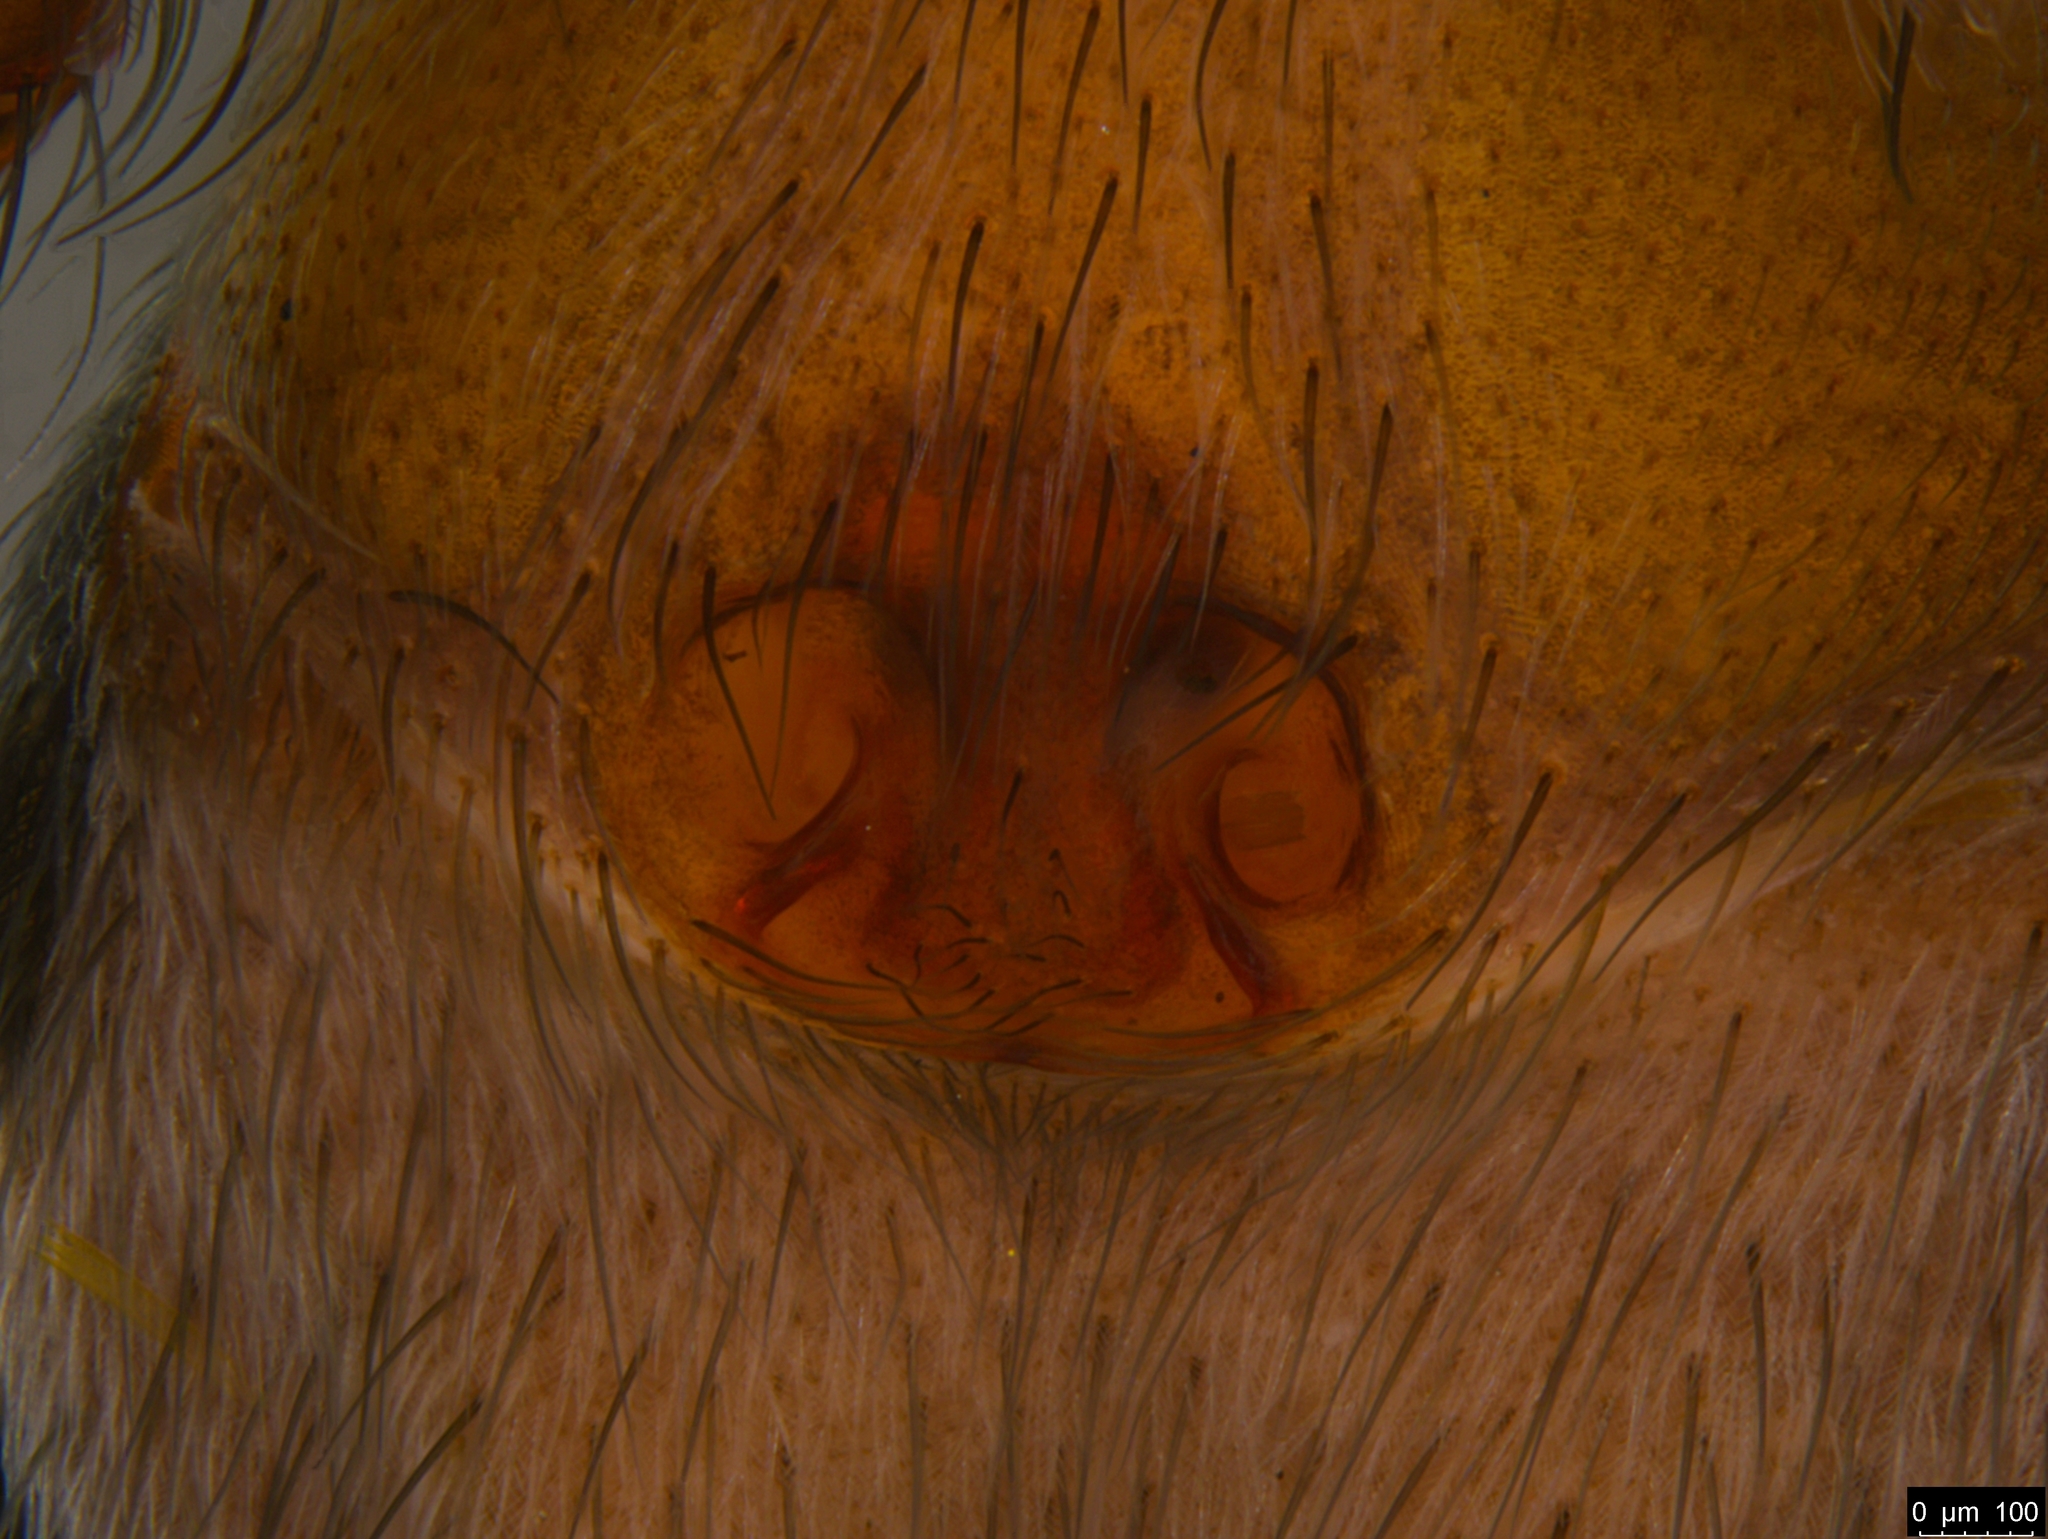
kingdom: Animalia
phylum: Arthropoda
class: Arachnida
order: Araneae
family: Corinnidae
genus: Nyssus
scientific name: Nyssus coloripes
